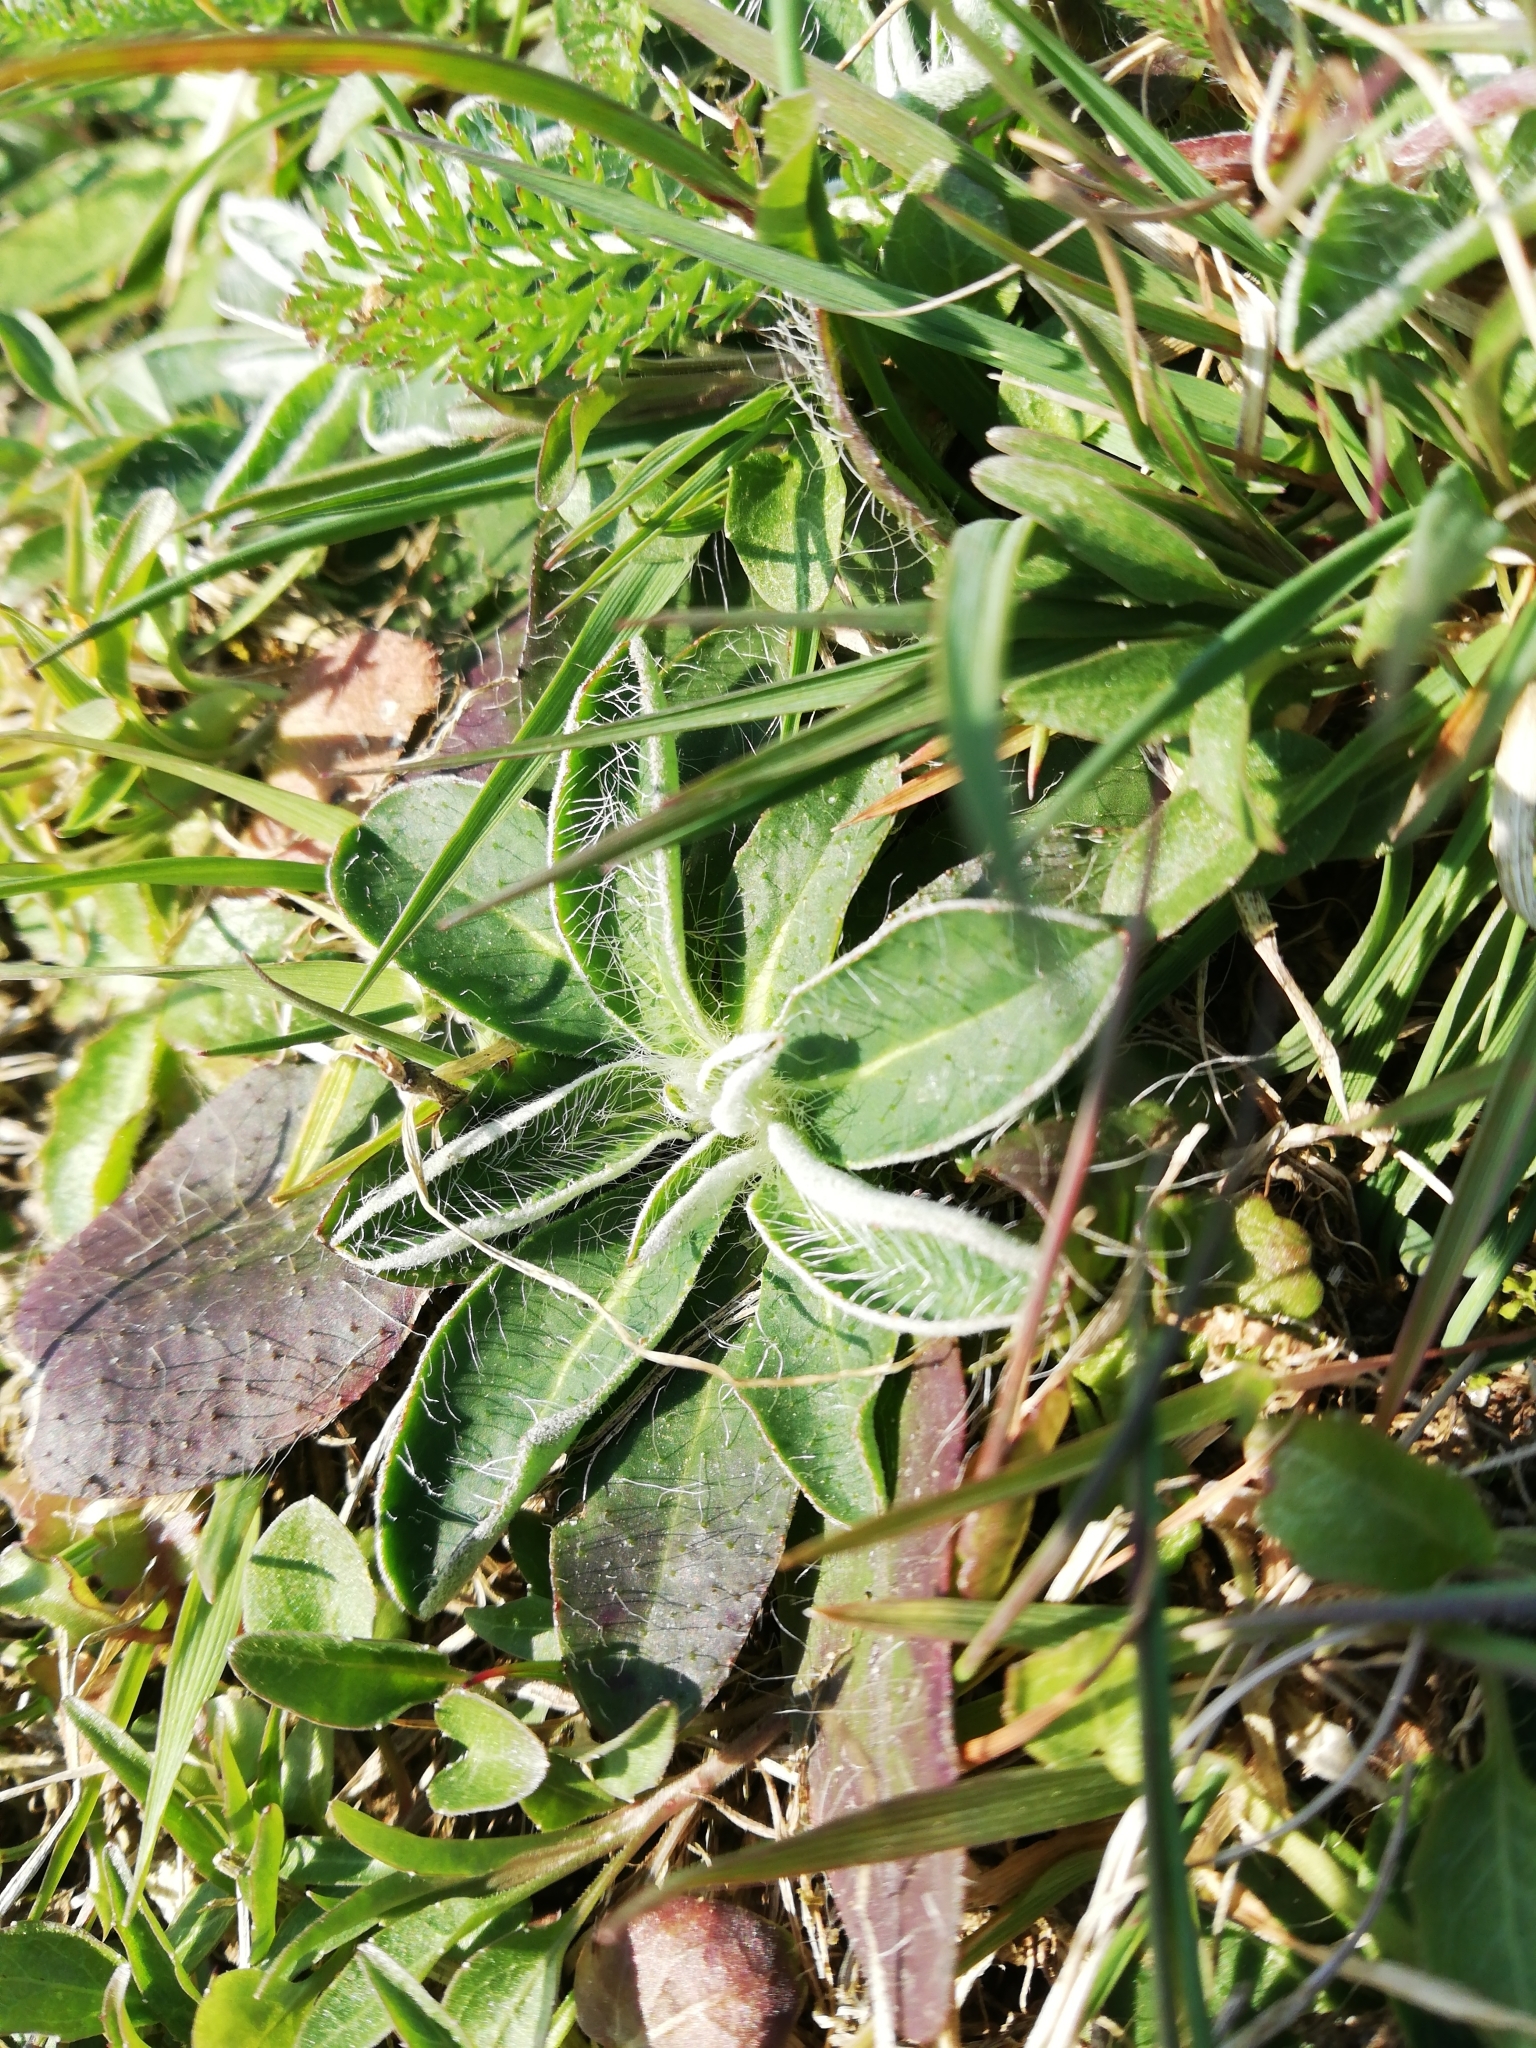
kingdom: Plantae
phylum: Tracheophyta
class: Magnoliopsida
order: Asterales
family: Asteraceae
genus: Pilosella
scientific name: Pilosella officinarum
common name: Mouse-ear hawkweed
